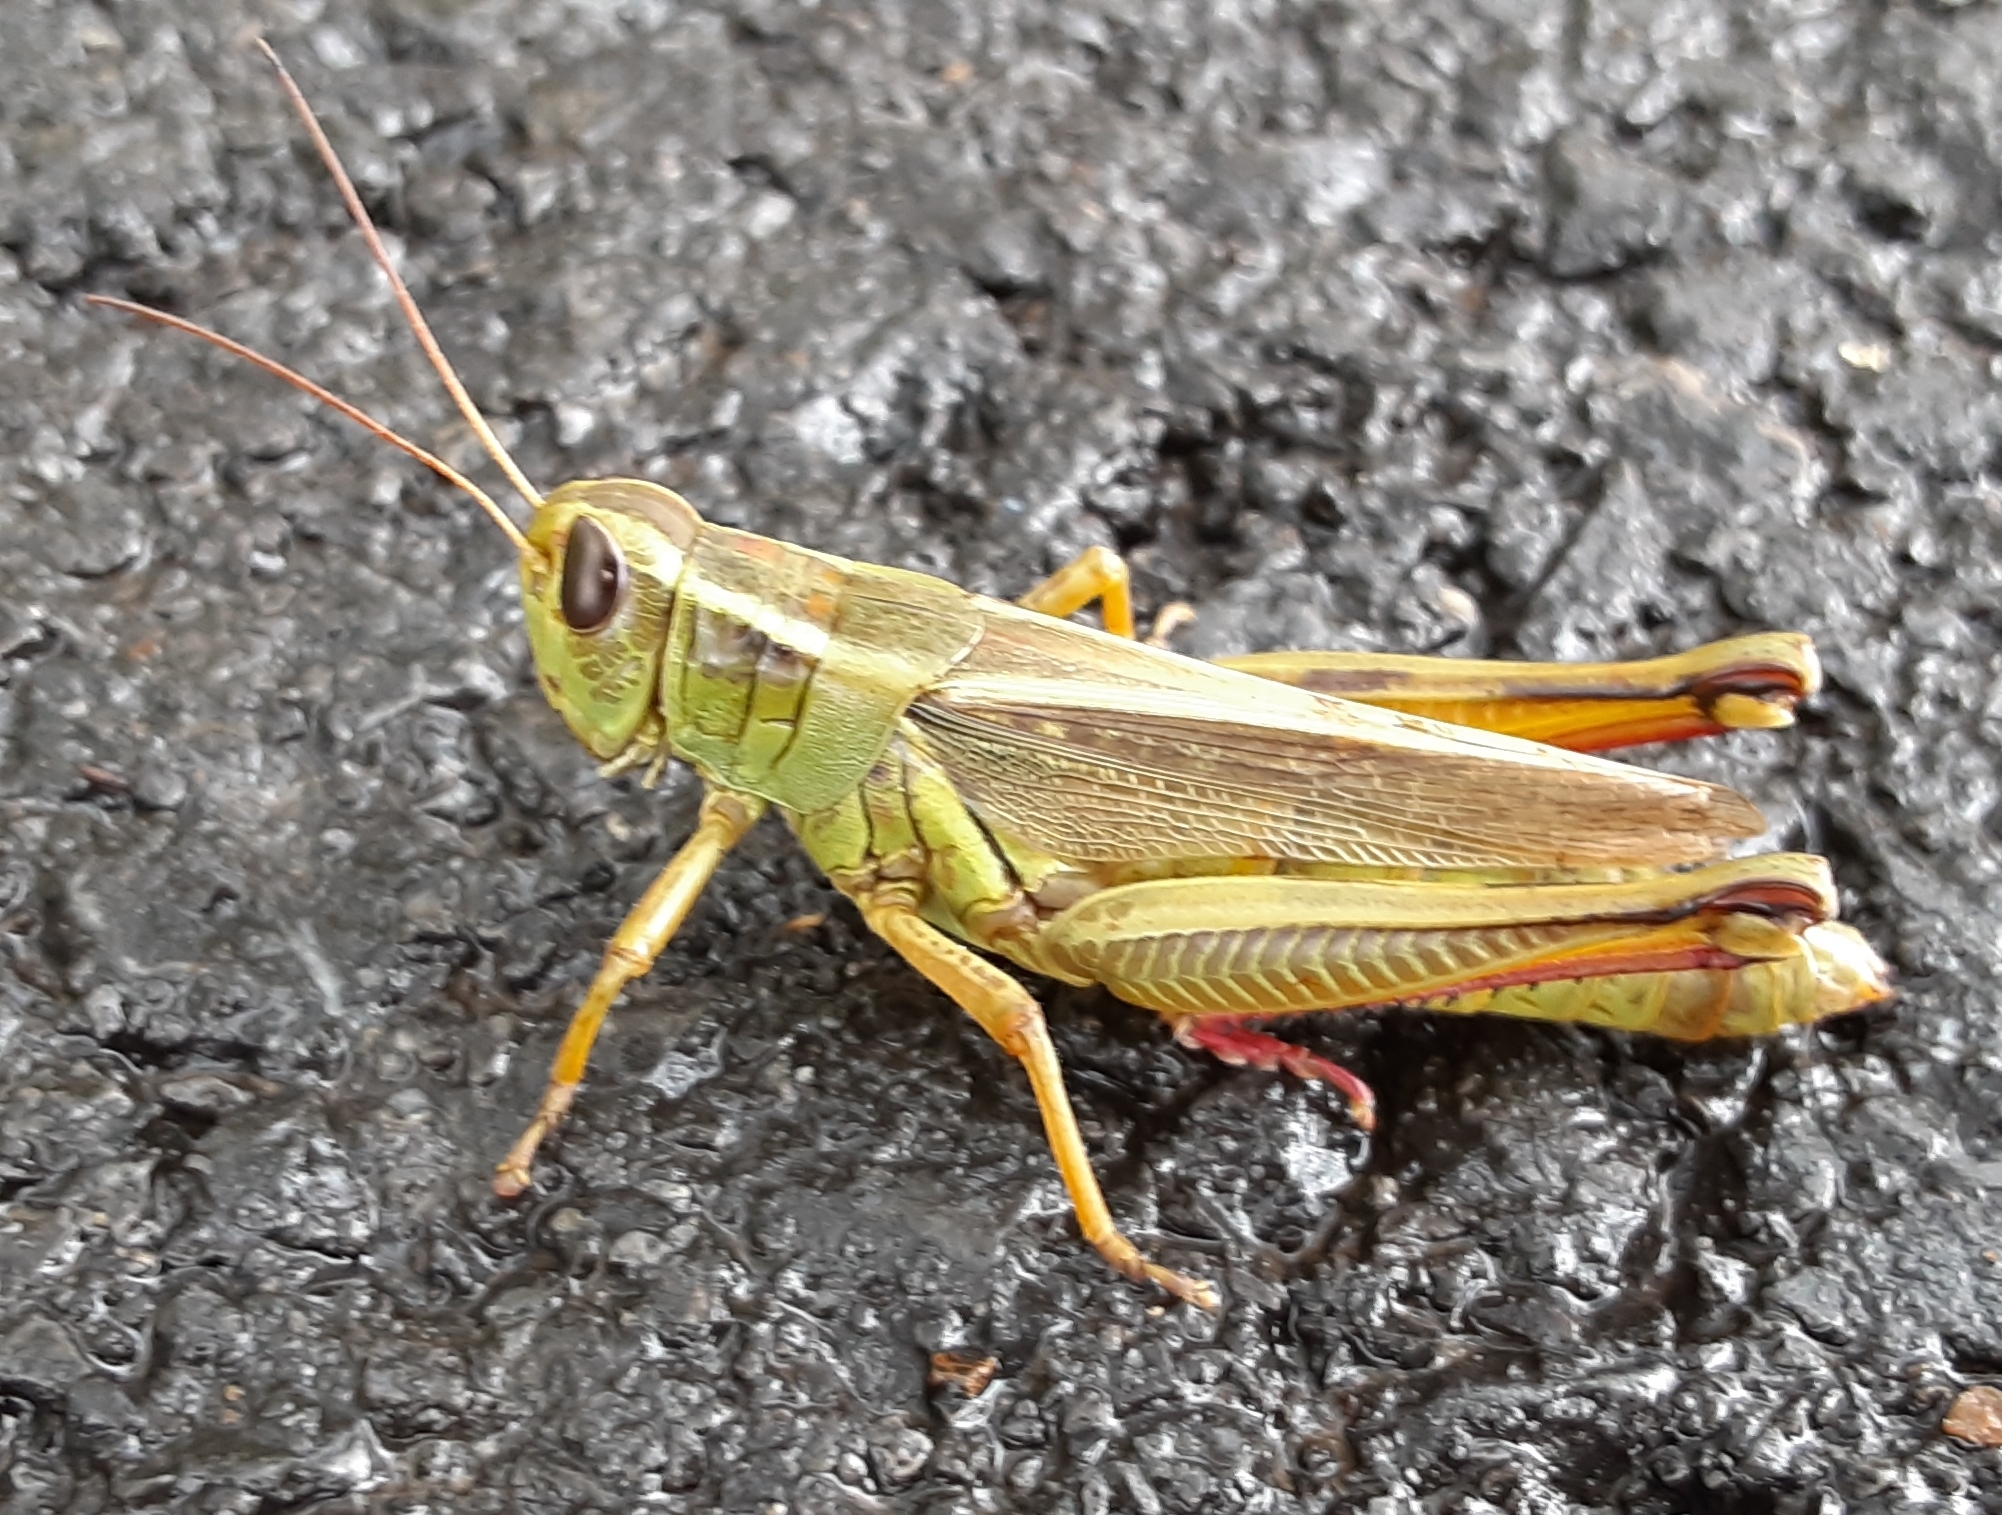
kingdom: Animalia
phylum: Arthropoda
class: Insecta
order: Orthoptera
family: Acrididae
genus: Melanoplus
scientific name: Melanoplus bivittatus
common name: Two-striped grasshopper
